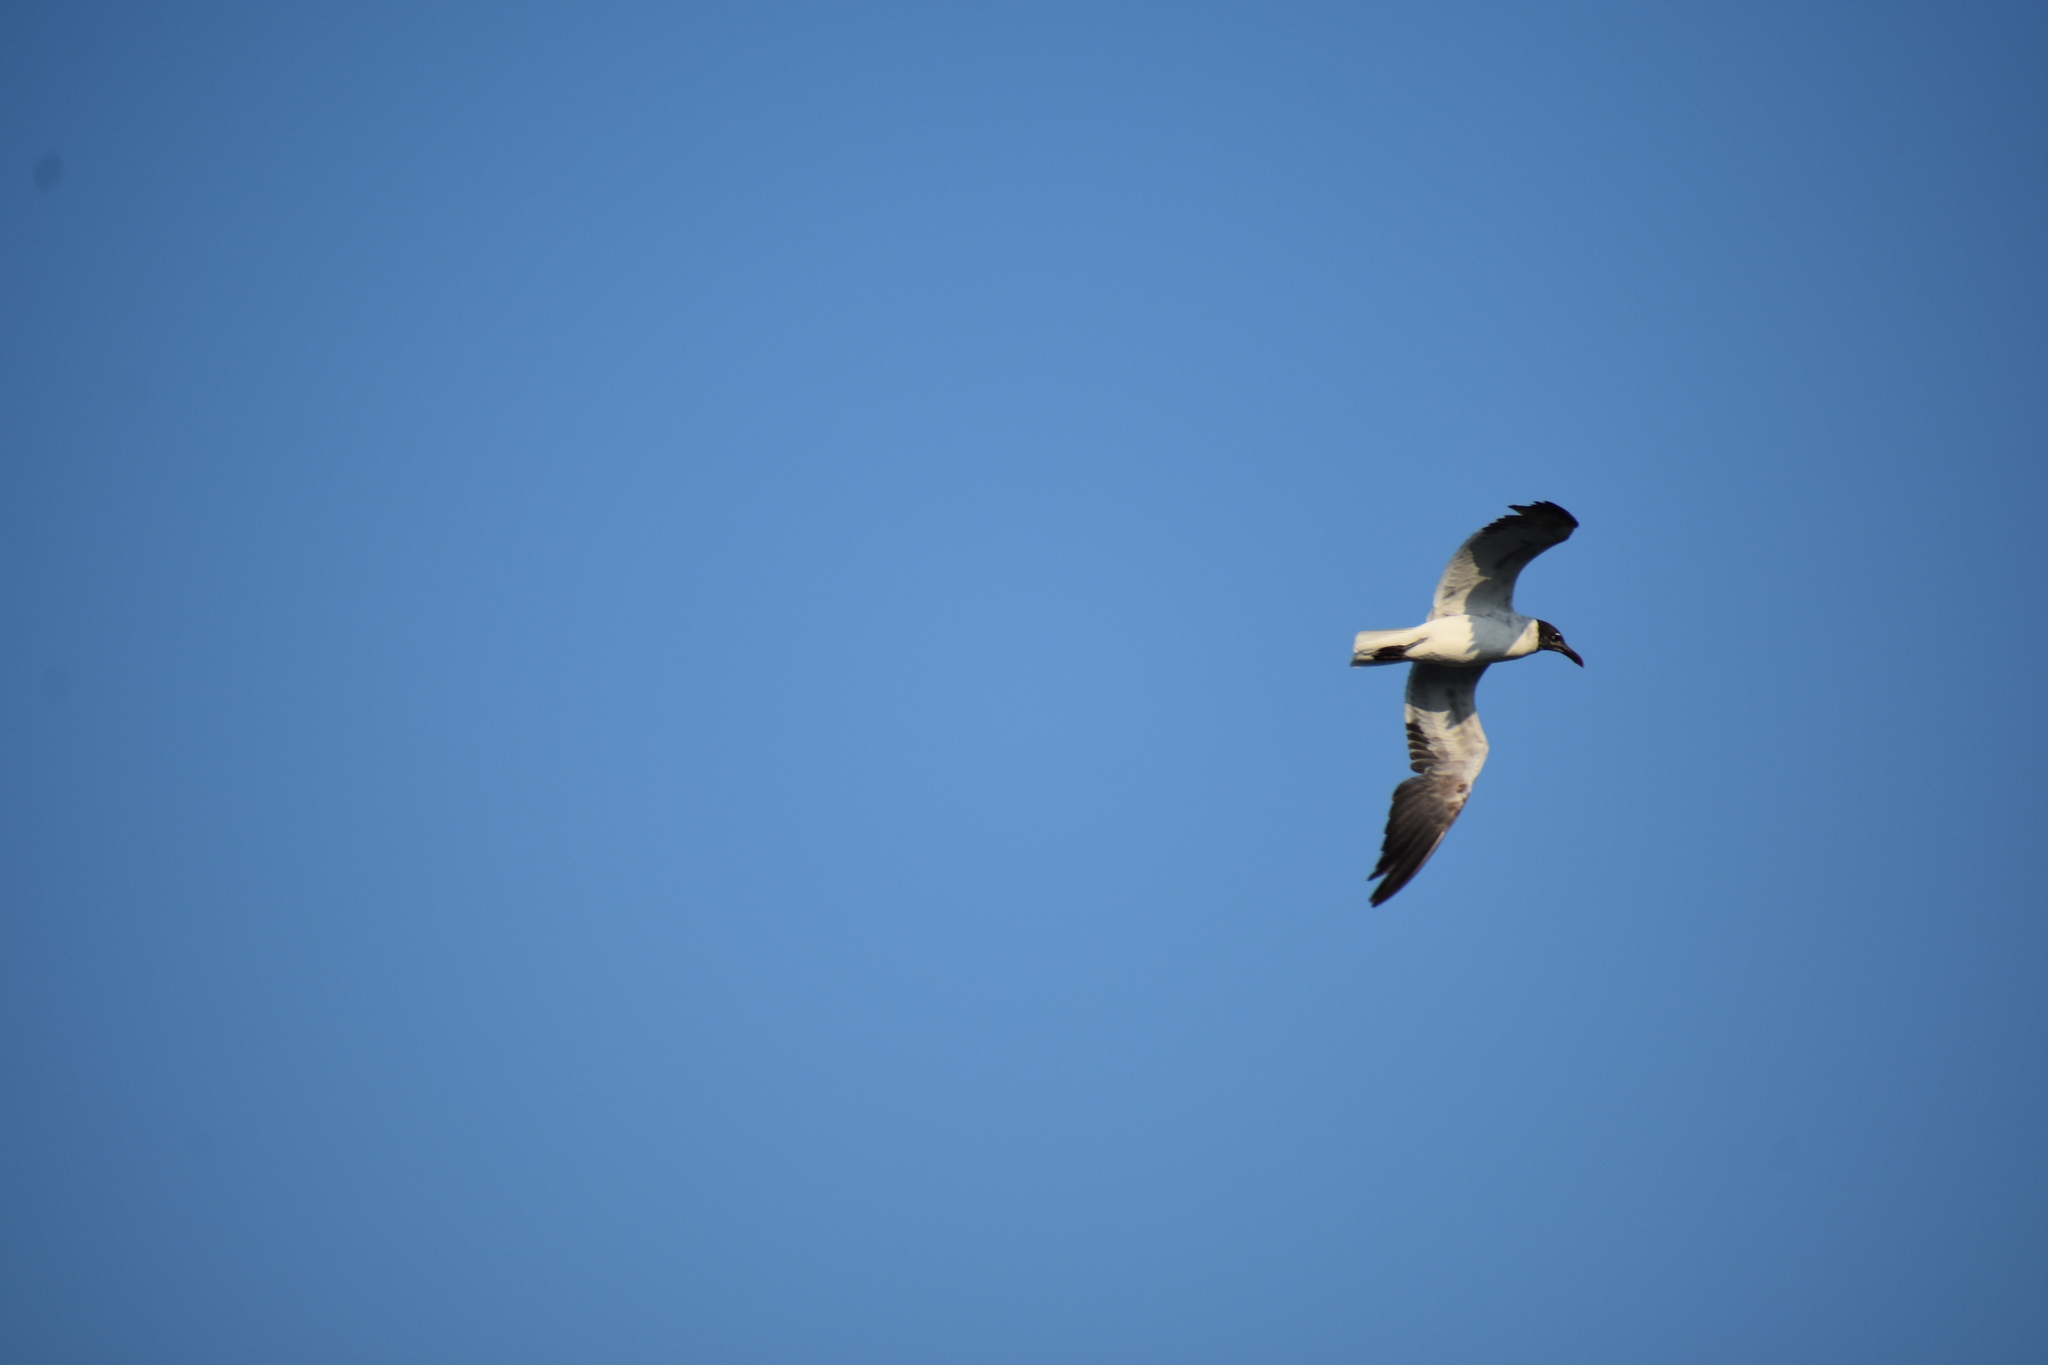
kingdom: Animalia
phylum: Chordata
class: Aves
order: Charadriiformes
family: Laridae
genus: Leucophaeus
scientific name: Leucophaeus atricilla
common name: Laughing gull
